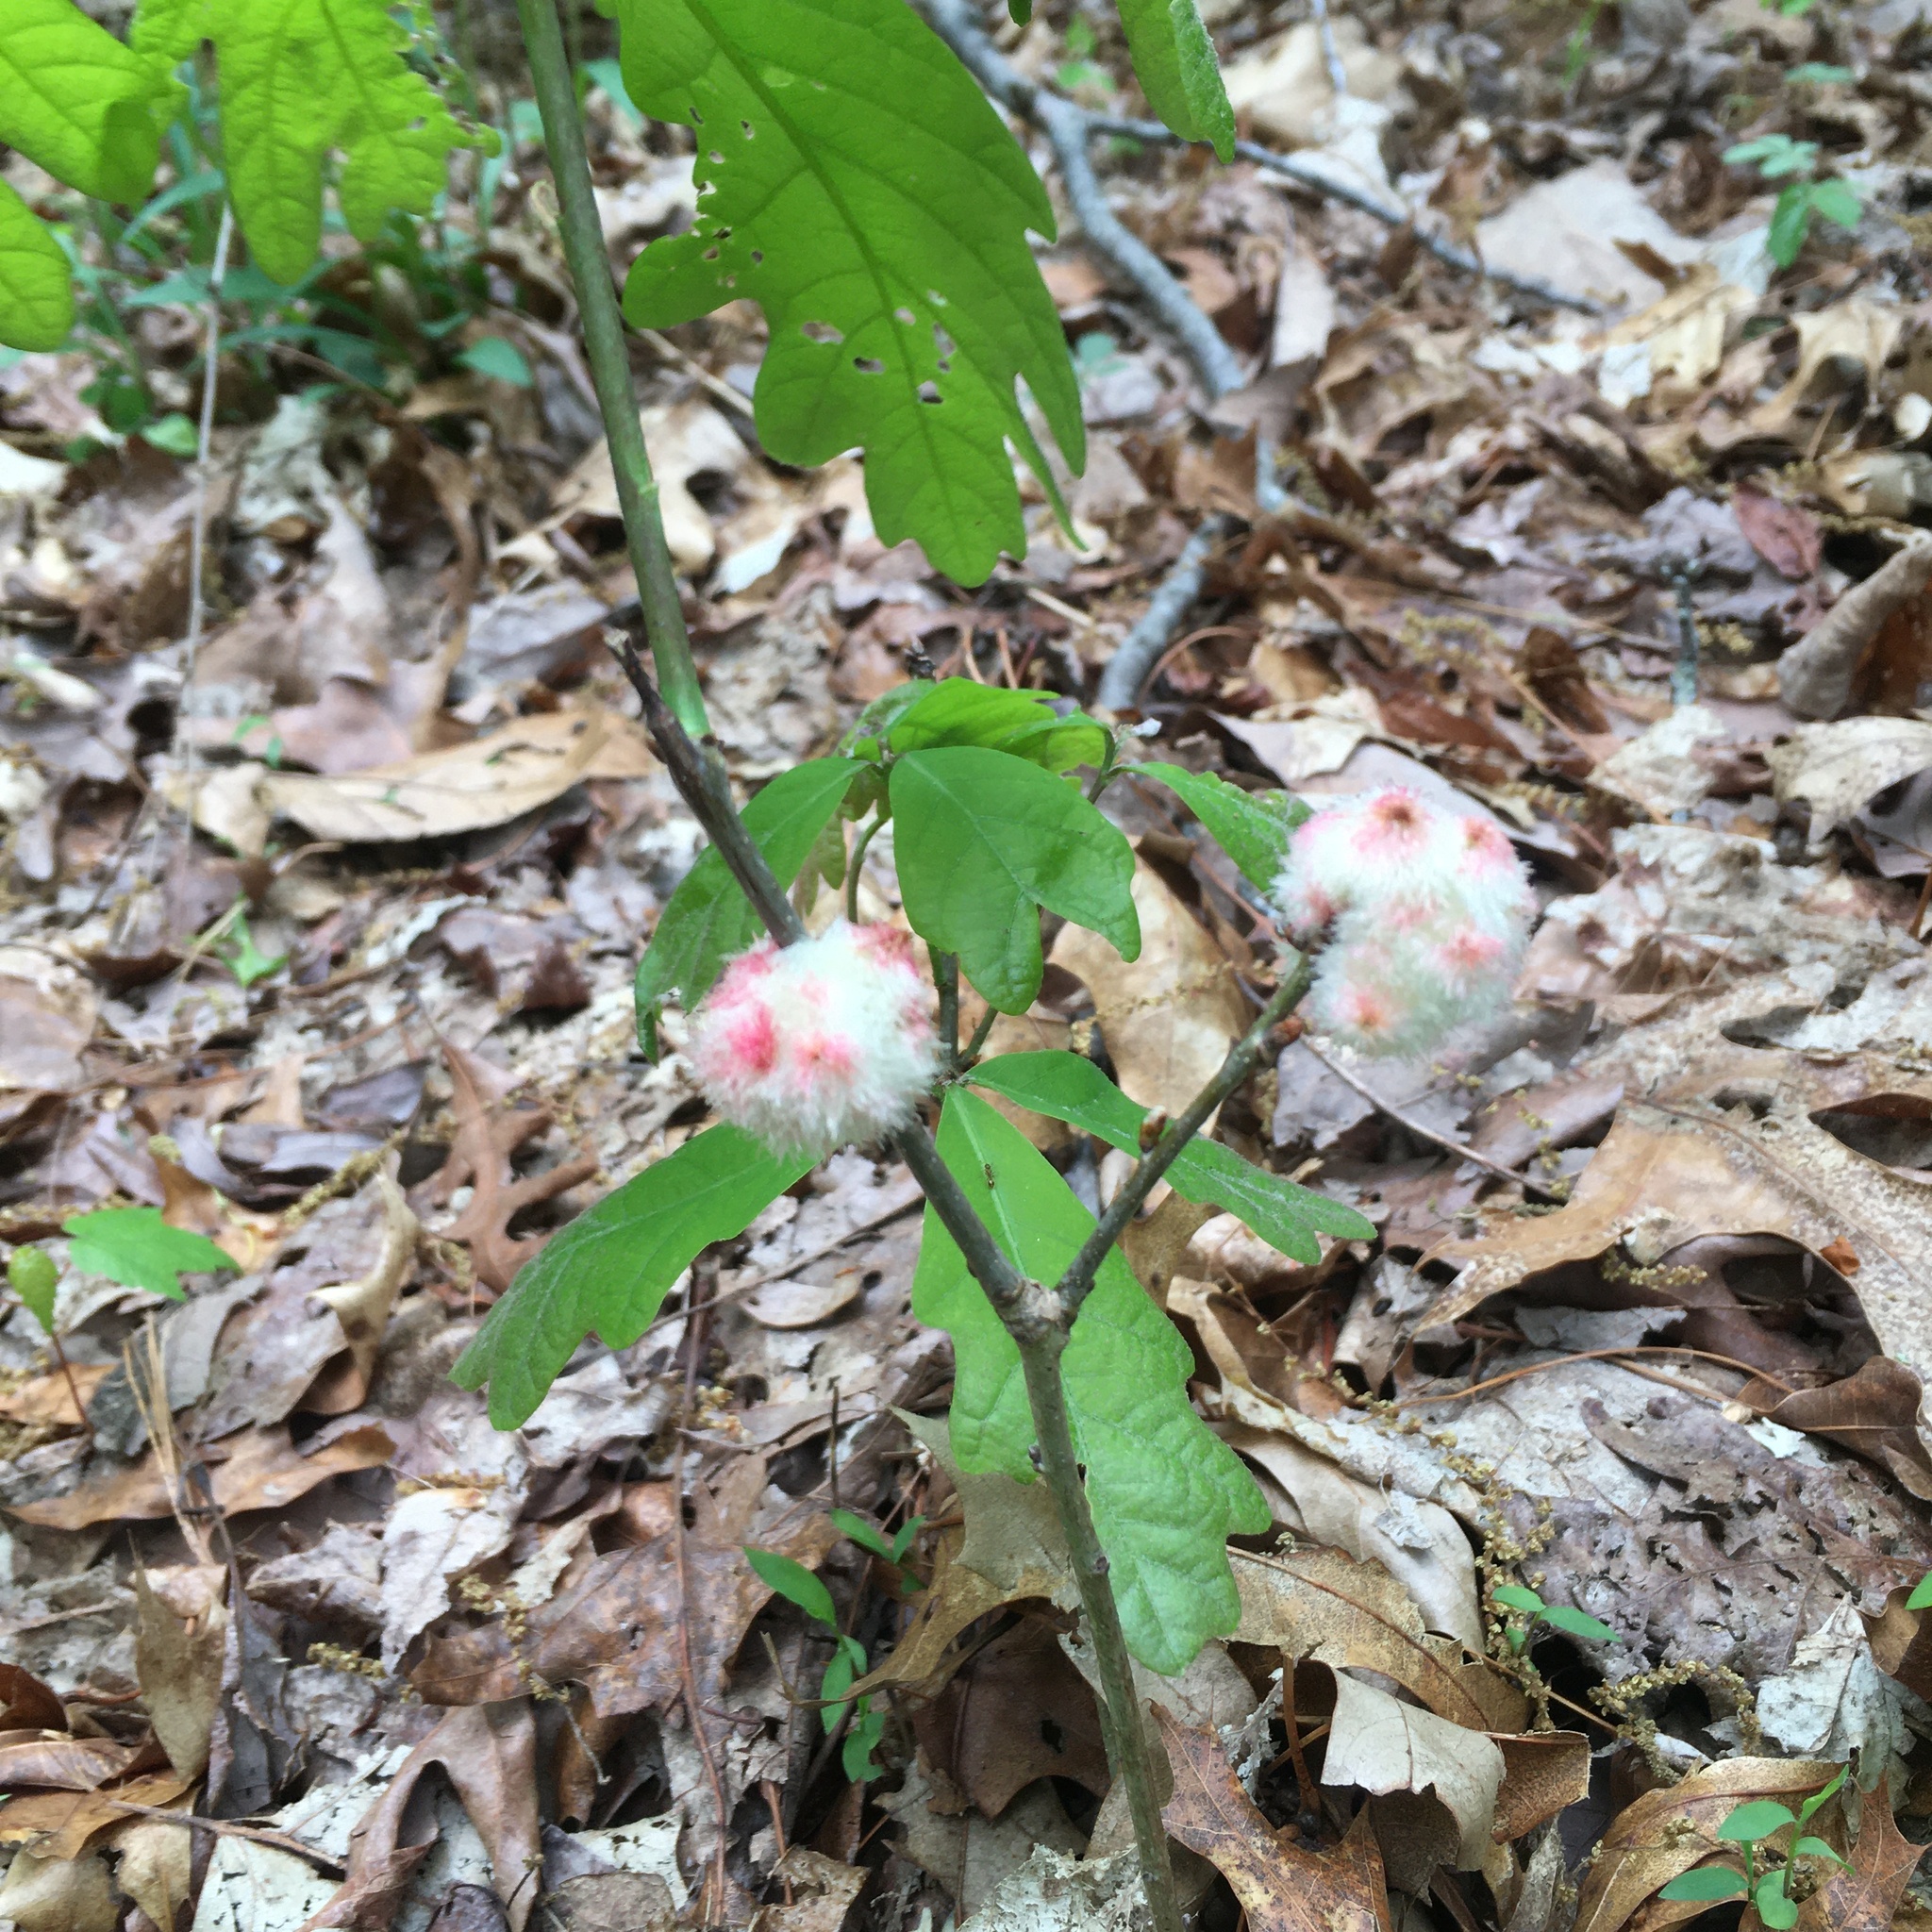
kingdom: Animalia
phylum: Arthropoda
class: Insecta
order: Hymenoptera
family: Cynipidae
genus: Callirhytis
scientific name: Callirhytis
